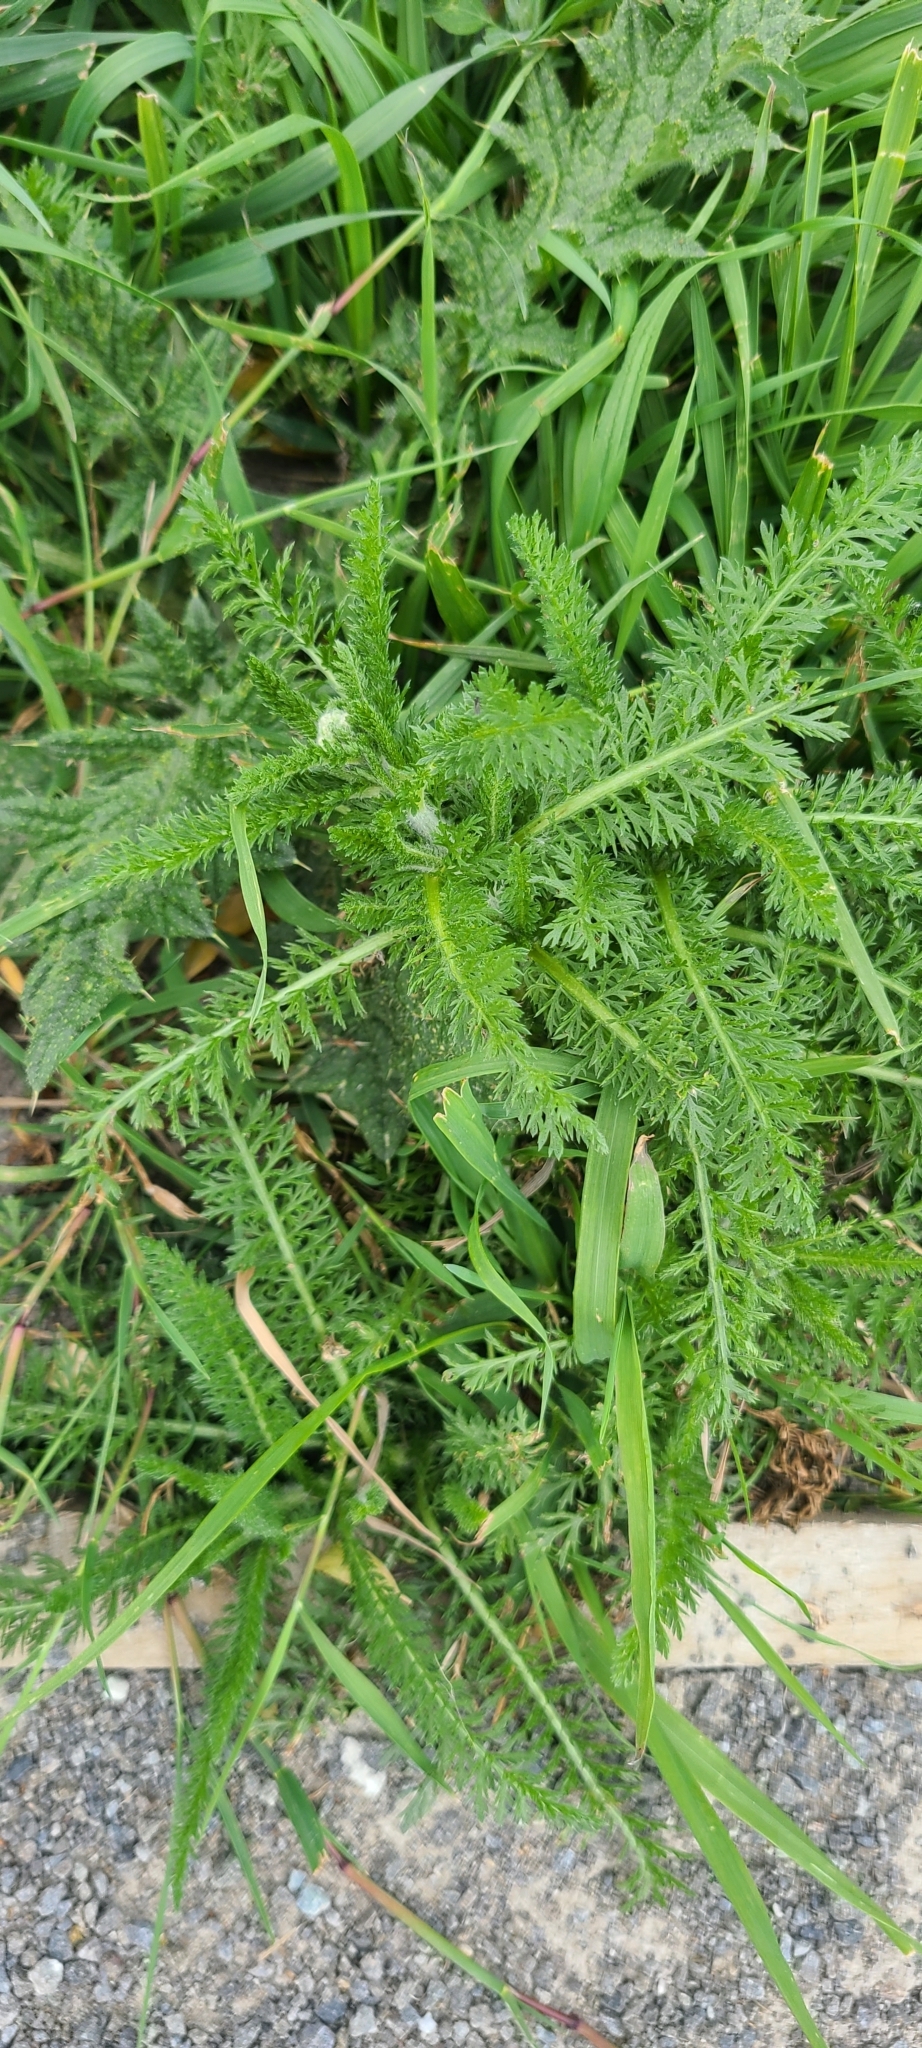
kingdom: Plantae
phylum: Tracheophyta
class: Magnoliopsida
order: Asterales
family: Asteraceae
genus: Achillea
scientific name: Achillea millefolium
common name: Yarrow
